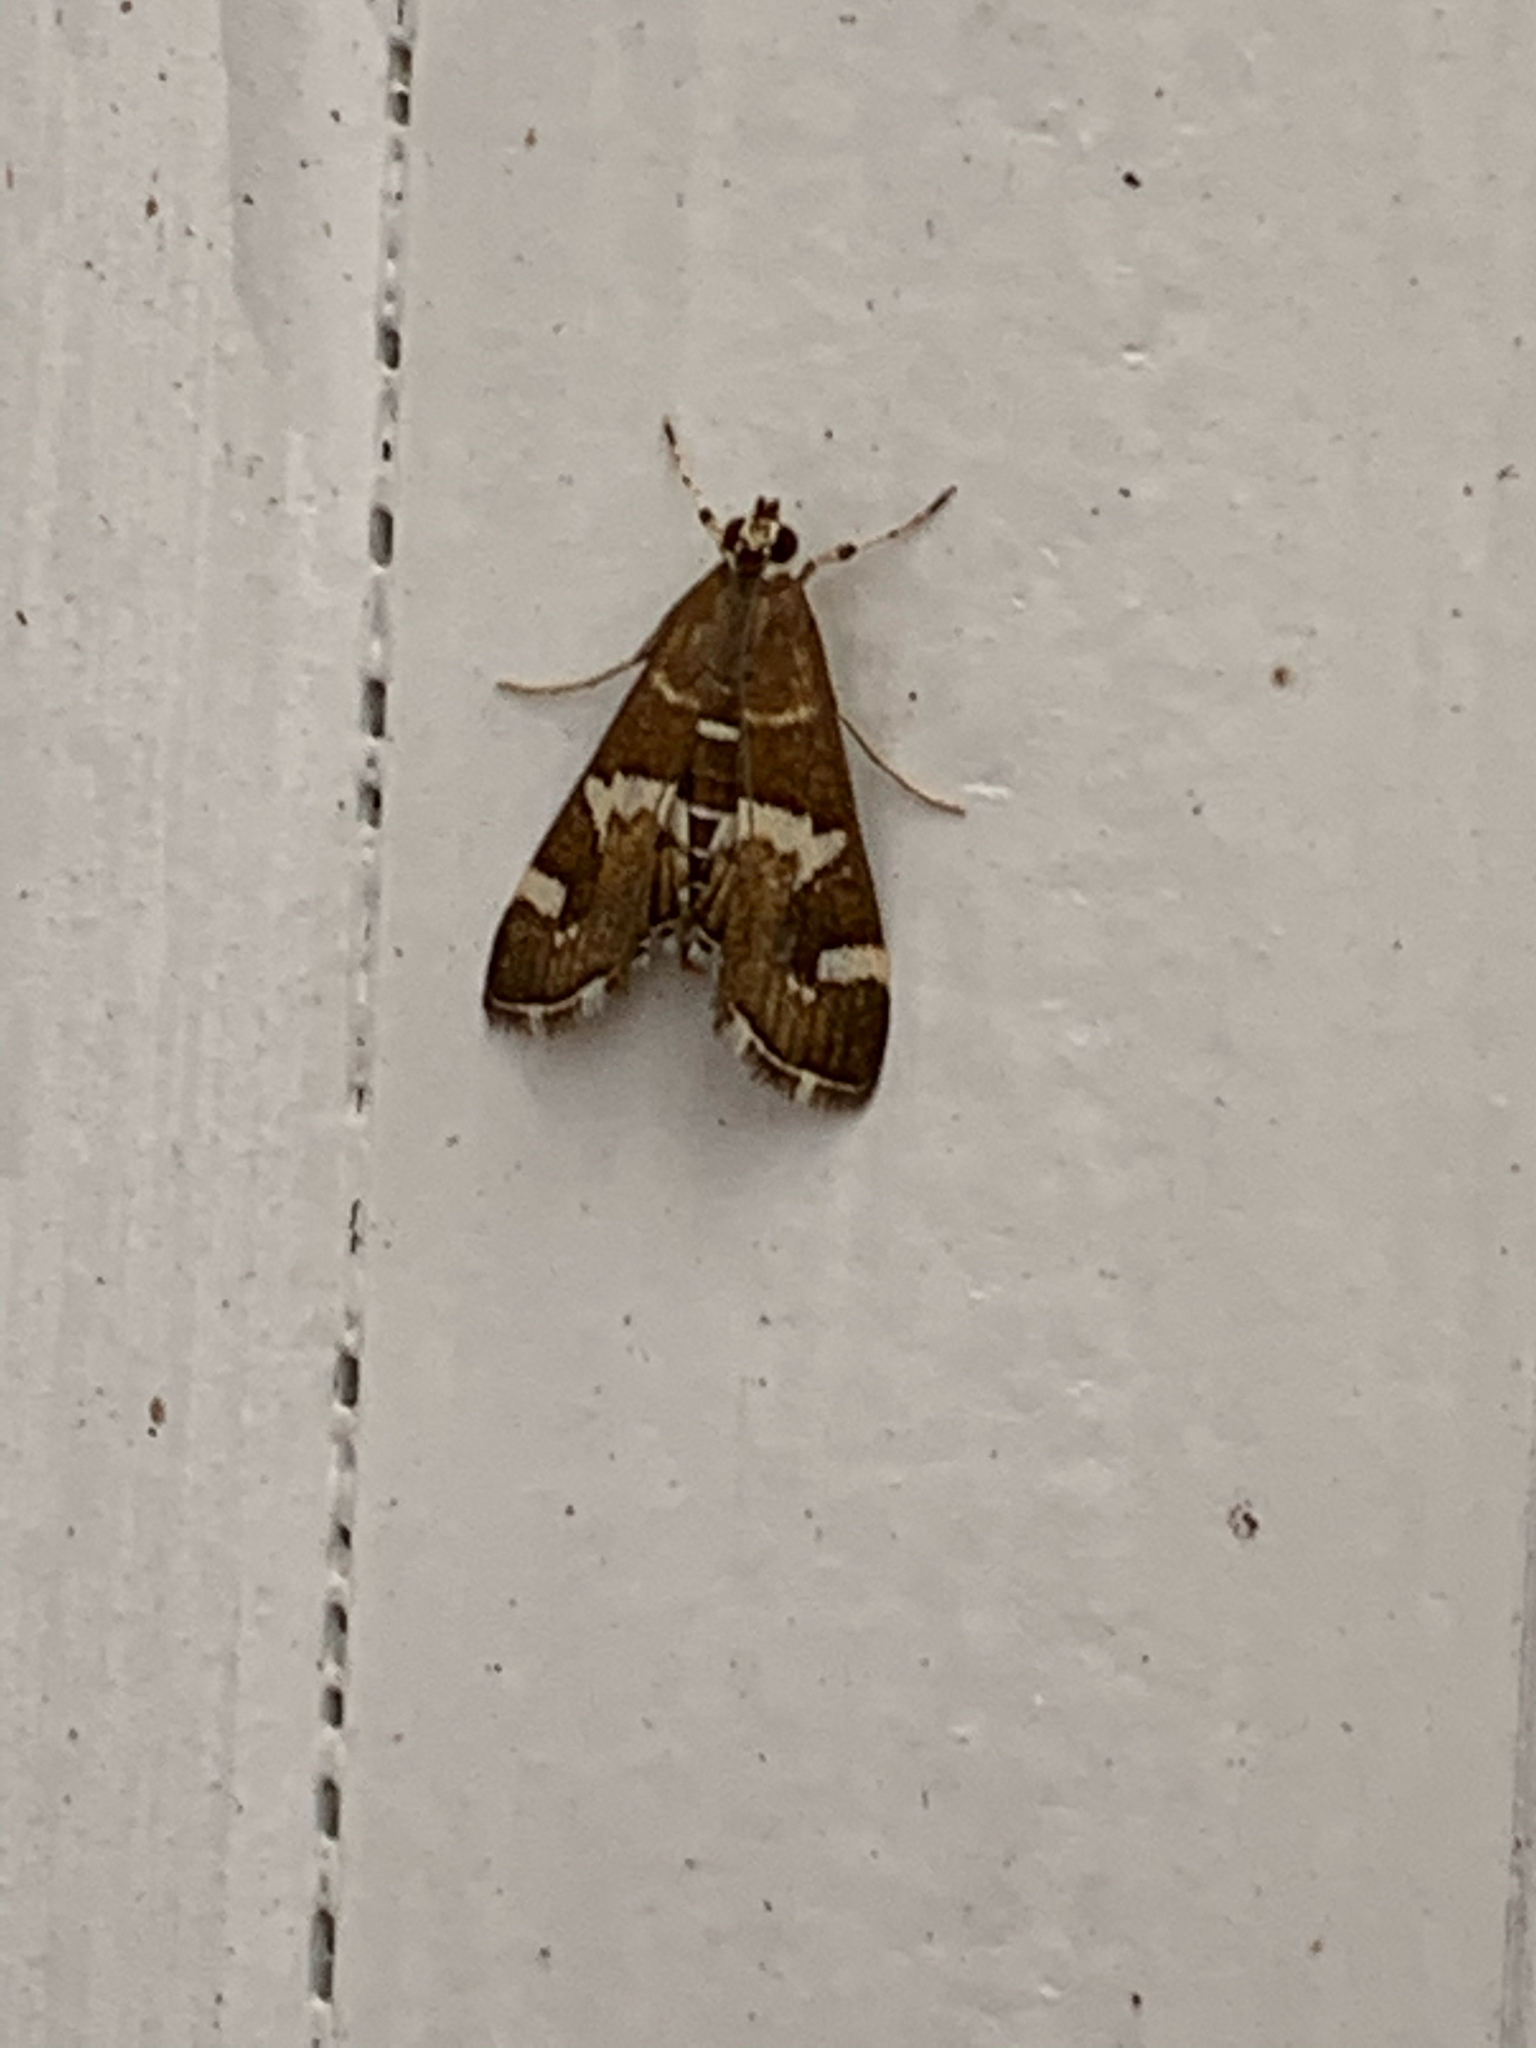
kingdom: Animalia
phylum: Arthropoda
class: Insecta
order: Lepidoptera
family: Crambidae
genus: Spoladea
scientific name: Spoladea recurvalis
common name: Beet webworm moth
